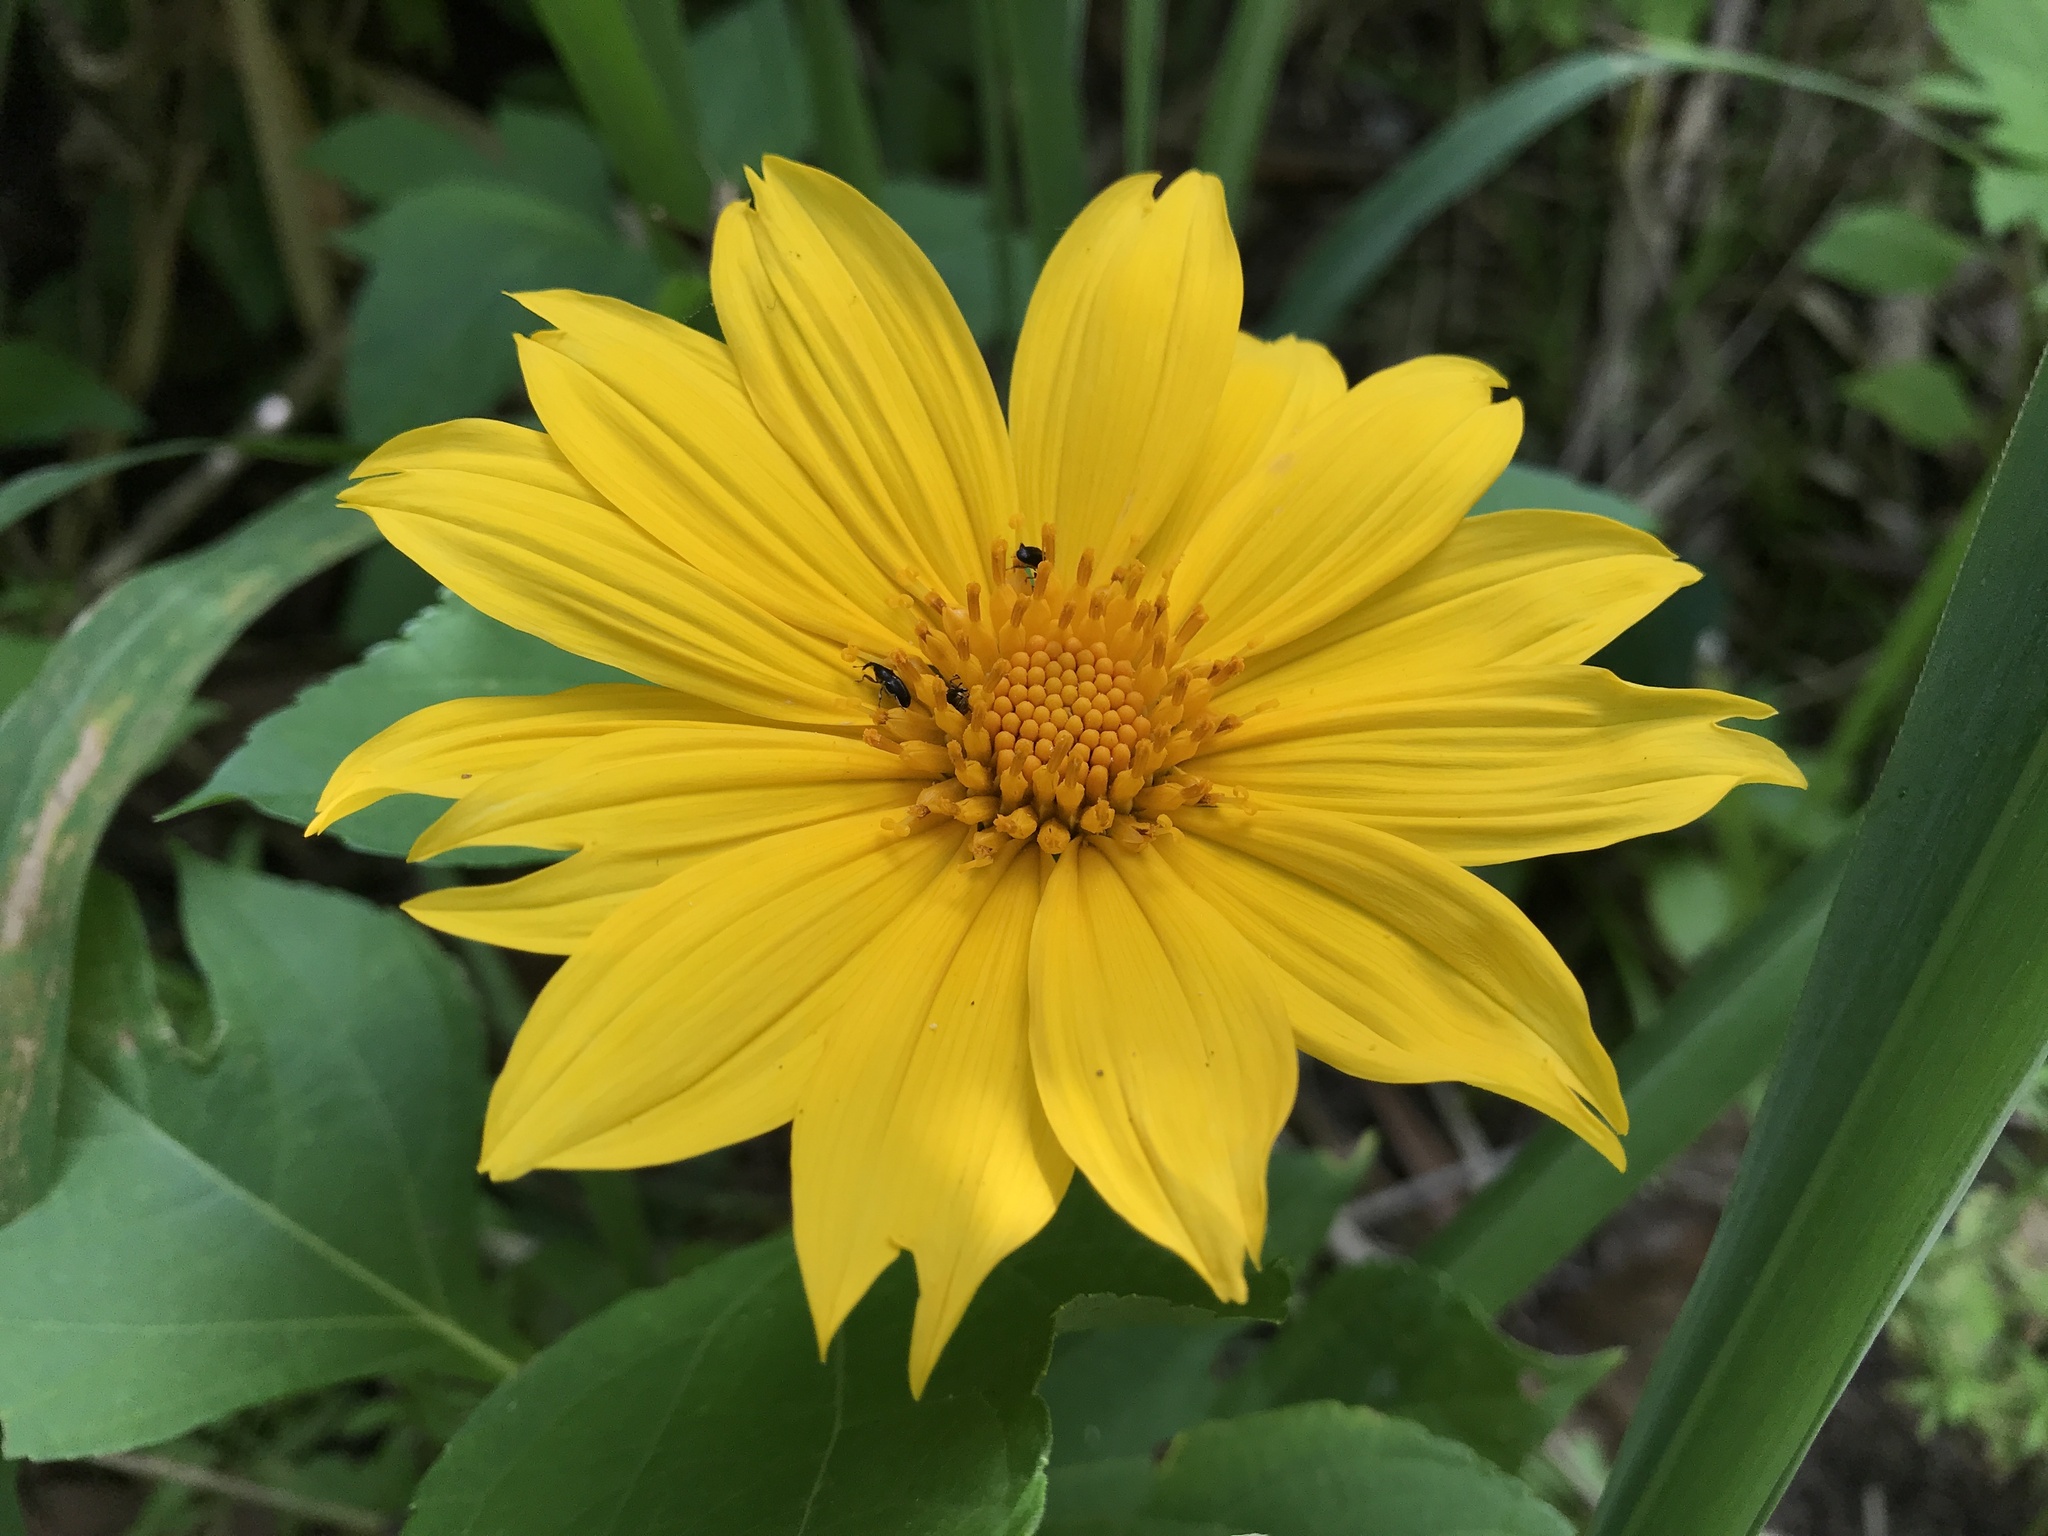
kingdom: Plantae
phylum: Tracheophyta
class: Magnoliopsida
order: Asterales
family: Asteraceae
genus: Tithonia
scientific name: Tithonia diversifolia
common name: Tree marigold
